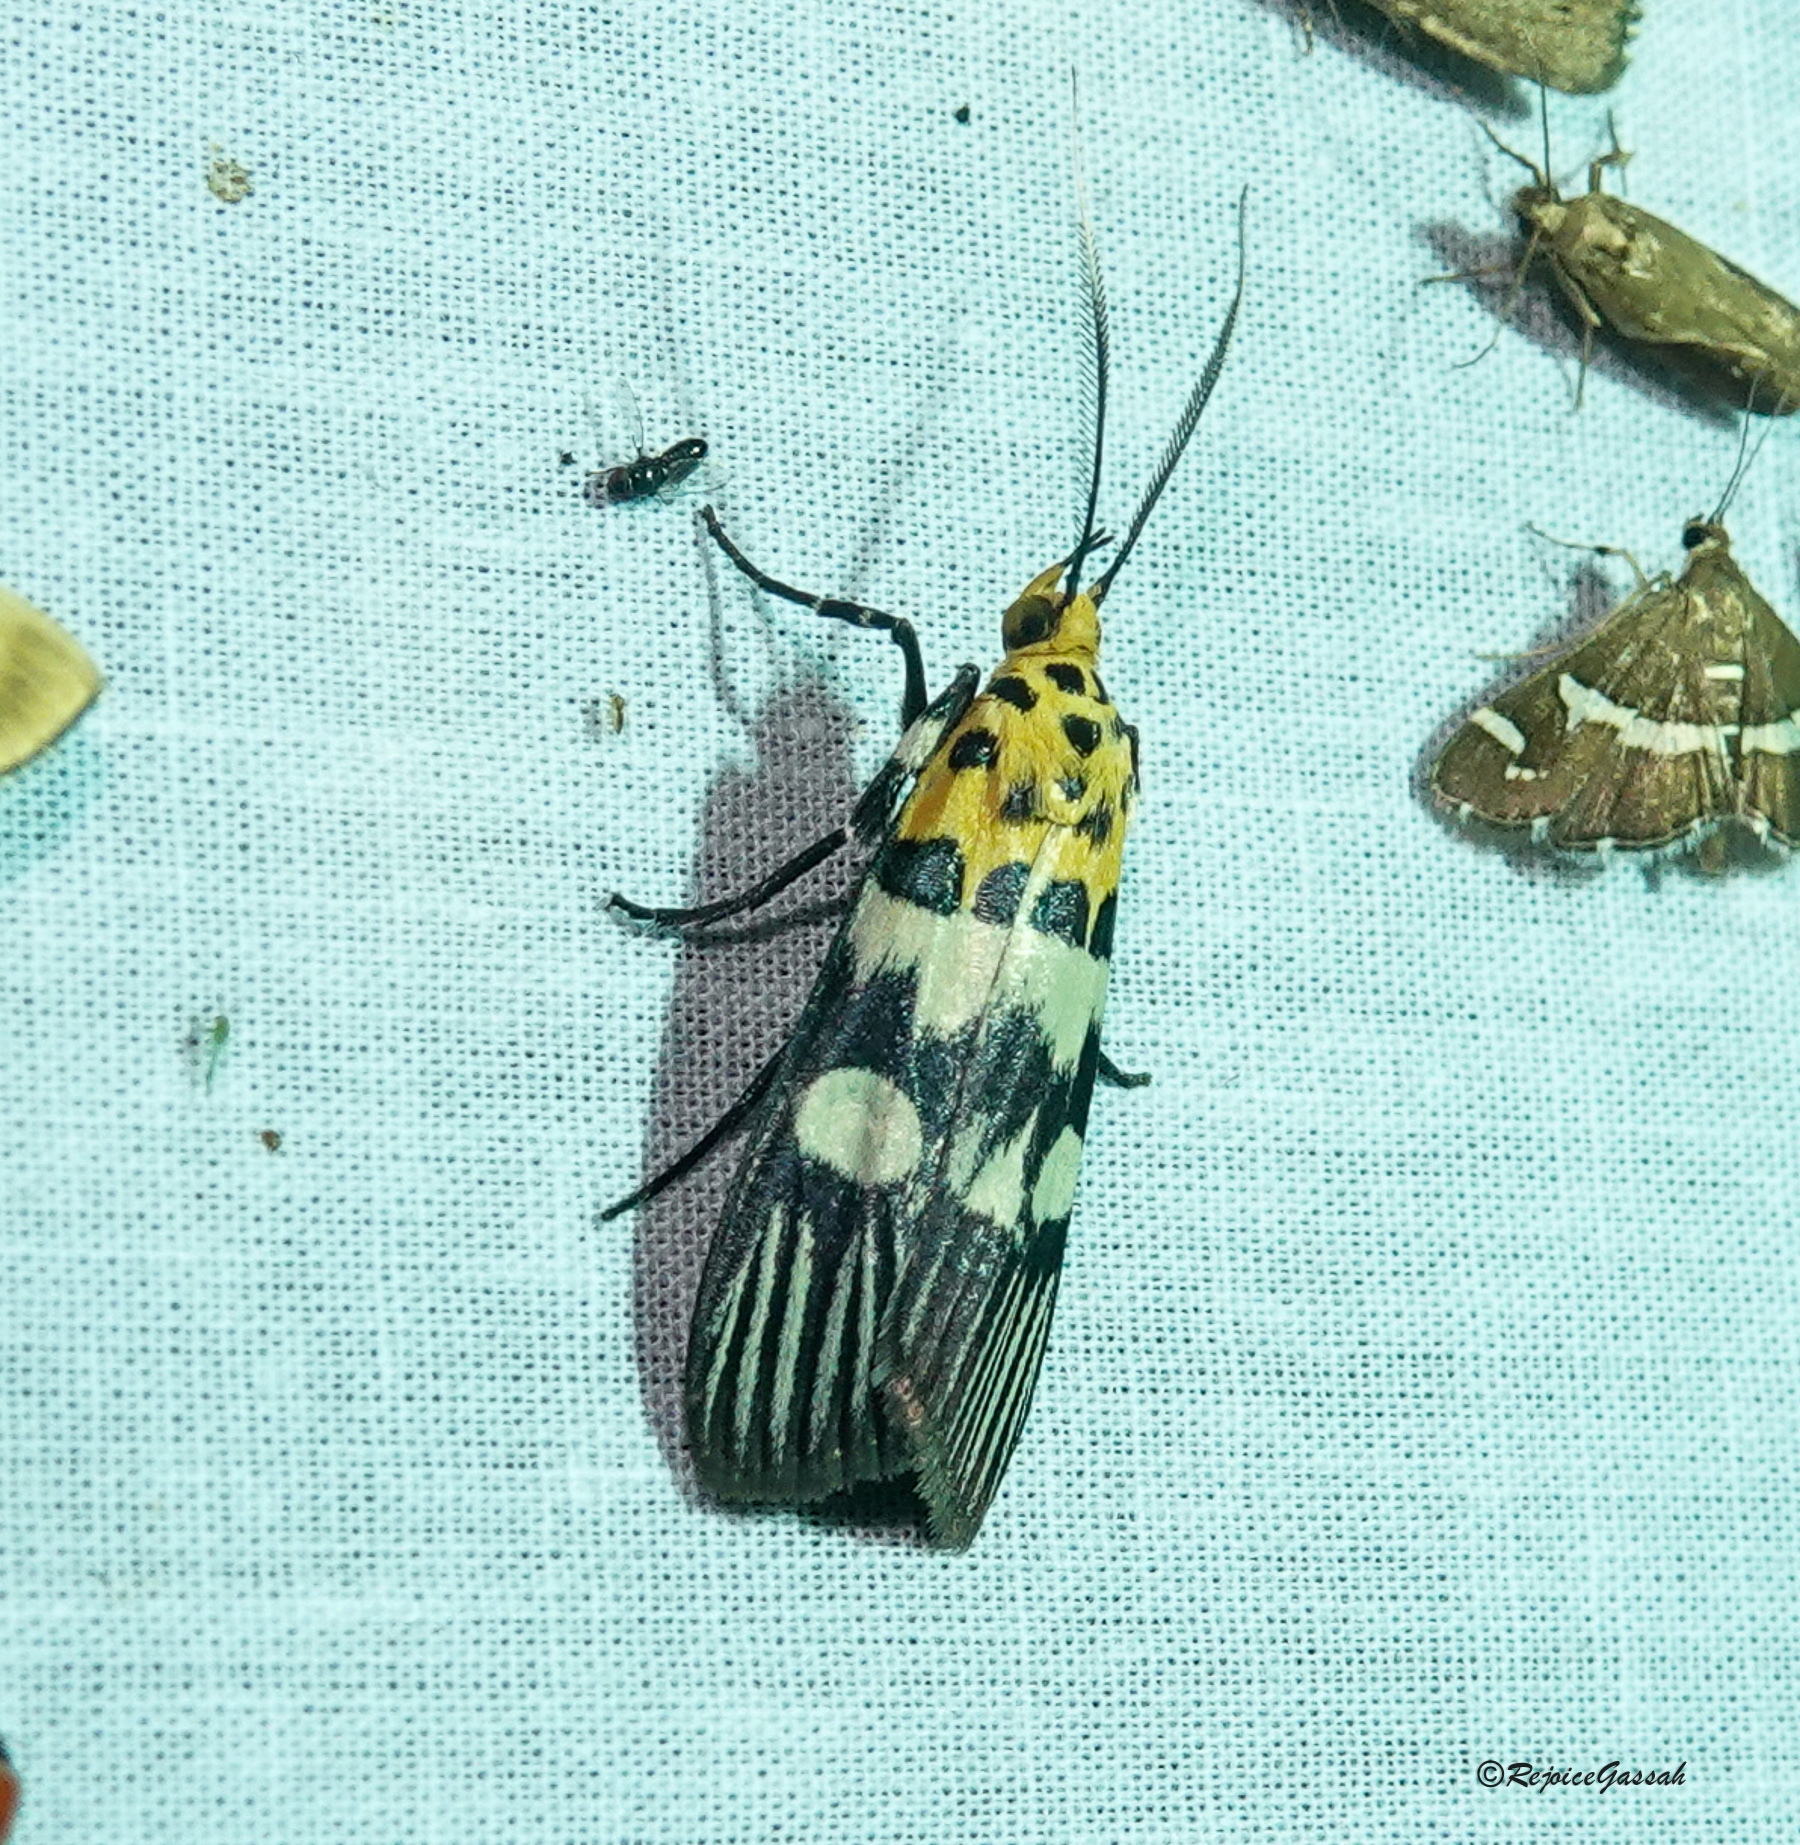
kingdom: Animalia
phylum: Arthropoda
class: Insecta
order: Lepidoptera
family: Pyralidae
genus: Vitessa
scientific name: Vitessa suradeva
